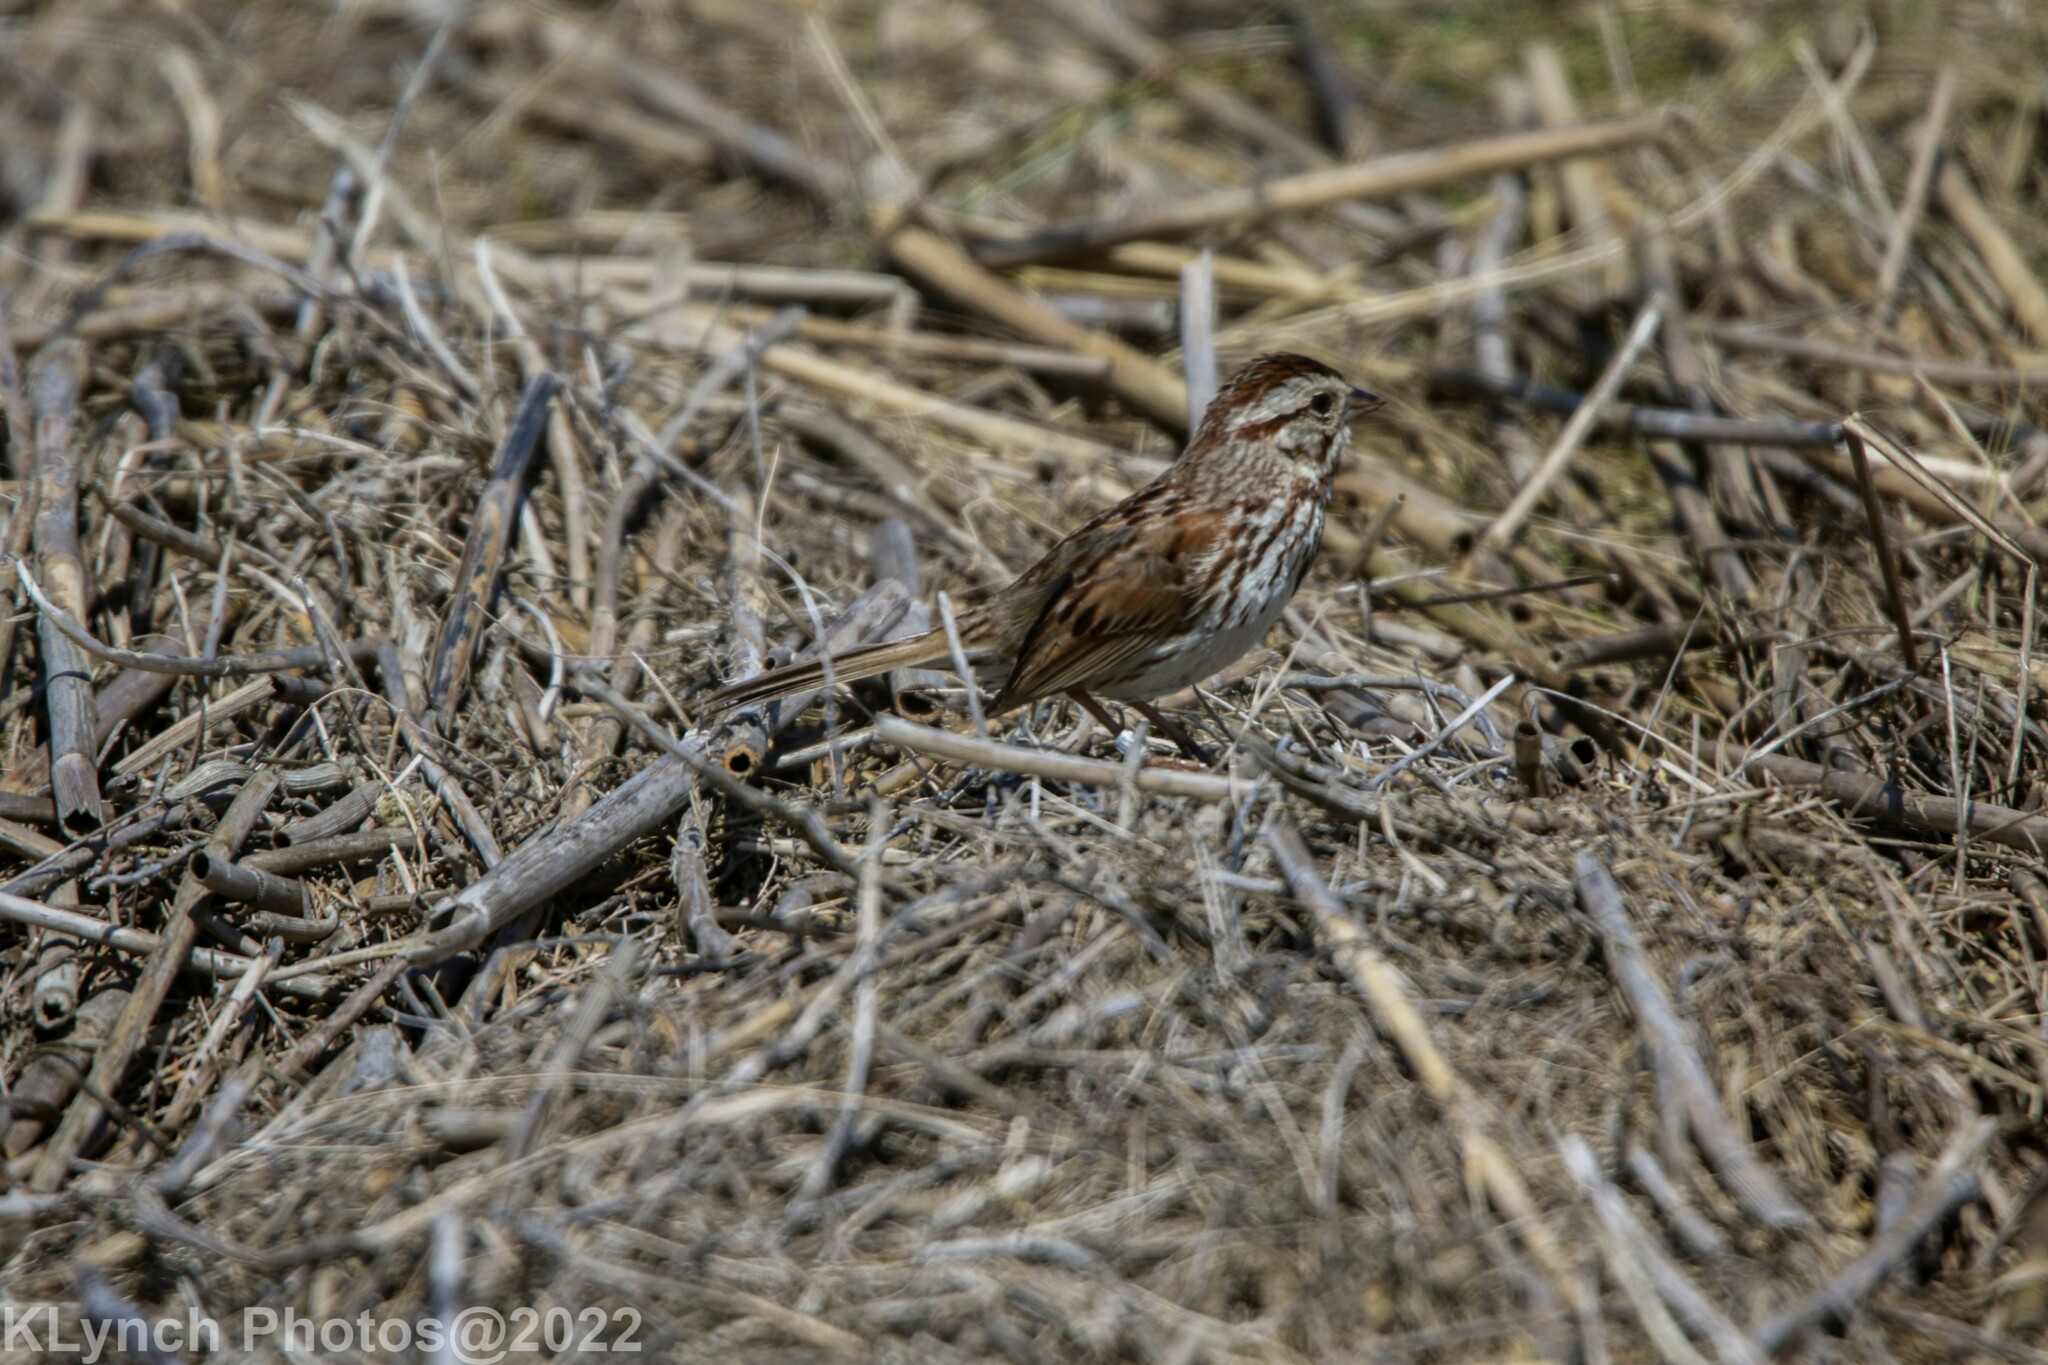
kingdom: Animalia
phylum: Chordata
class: Aves
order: Passeriformes
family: Passerellidae
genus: Melospiza
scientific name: Melospiza melodia
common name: Song sparrow
